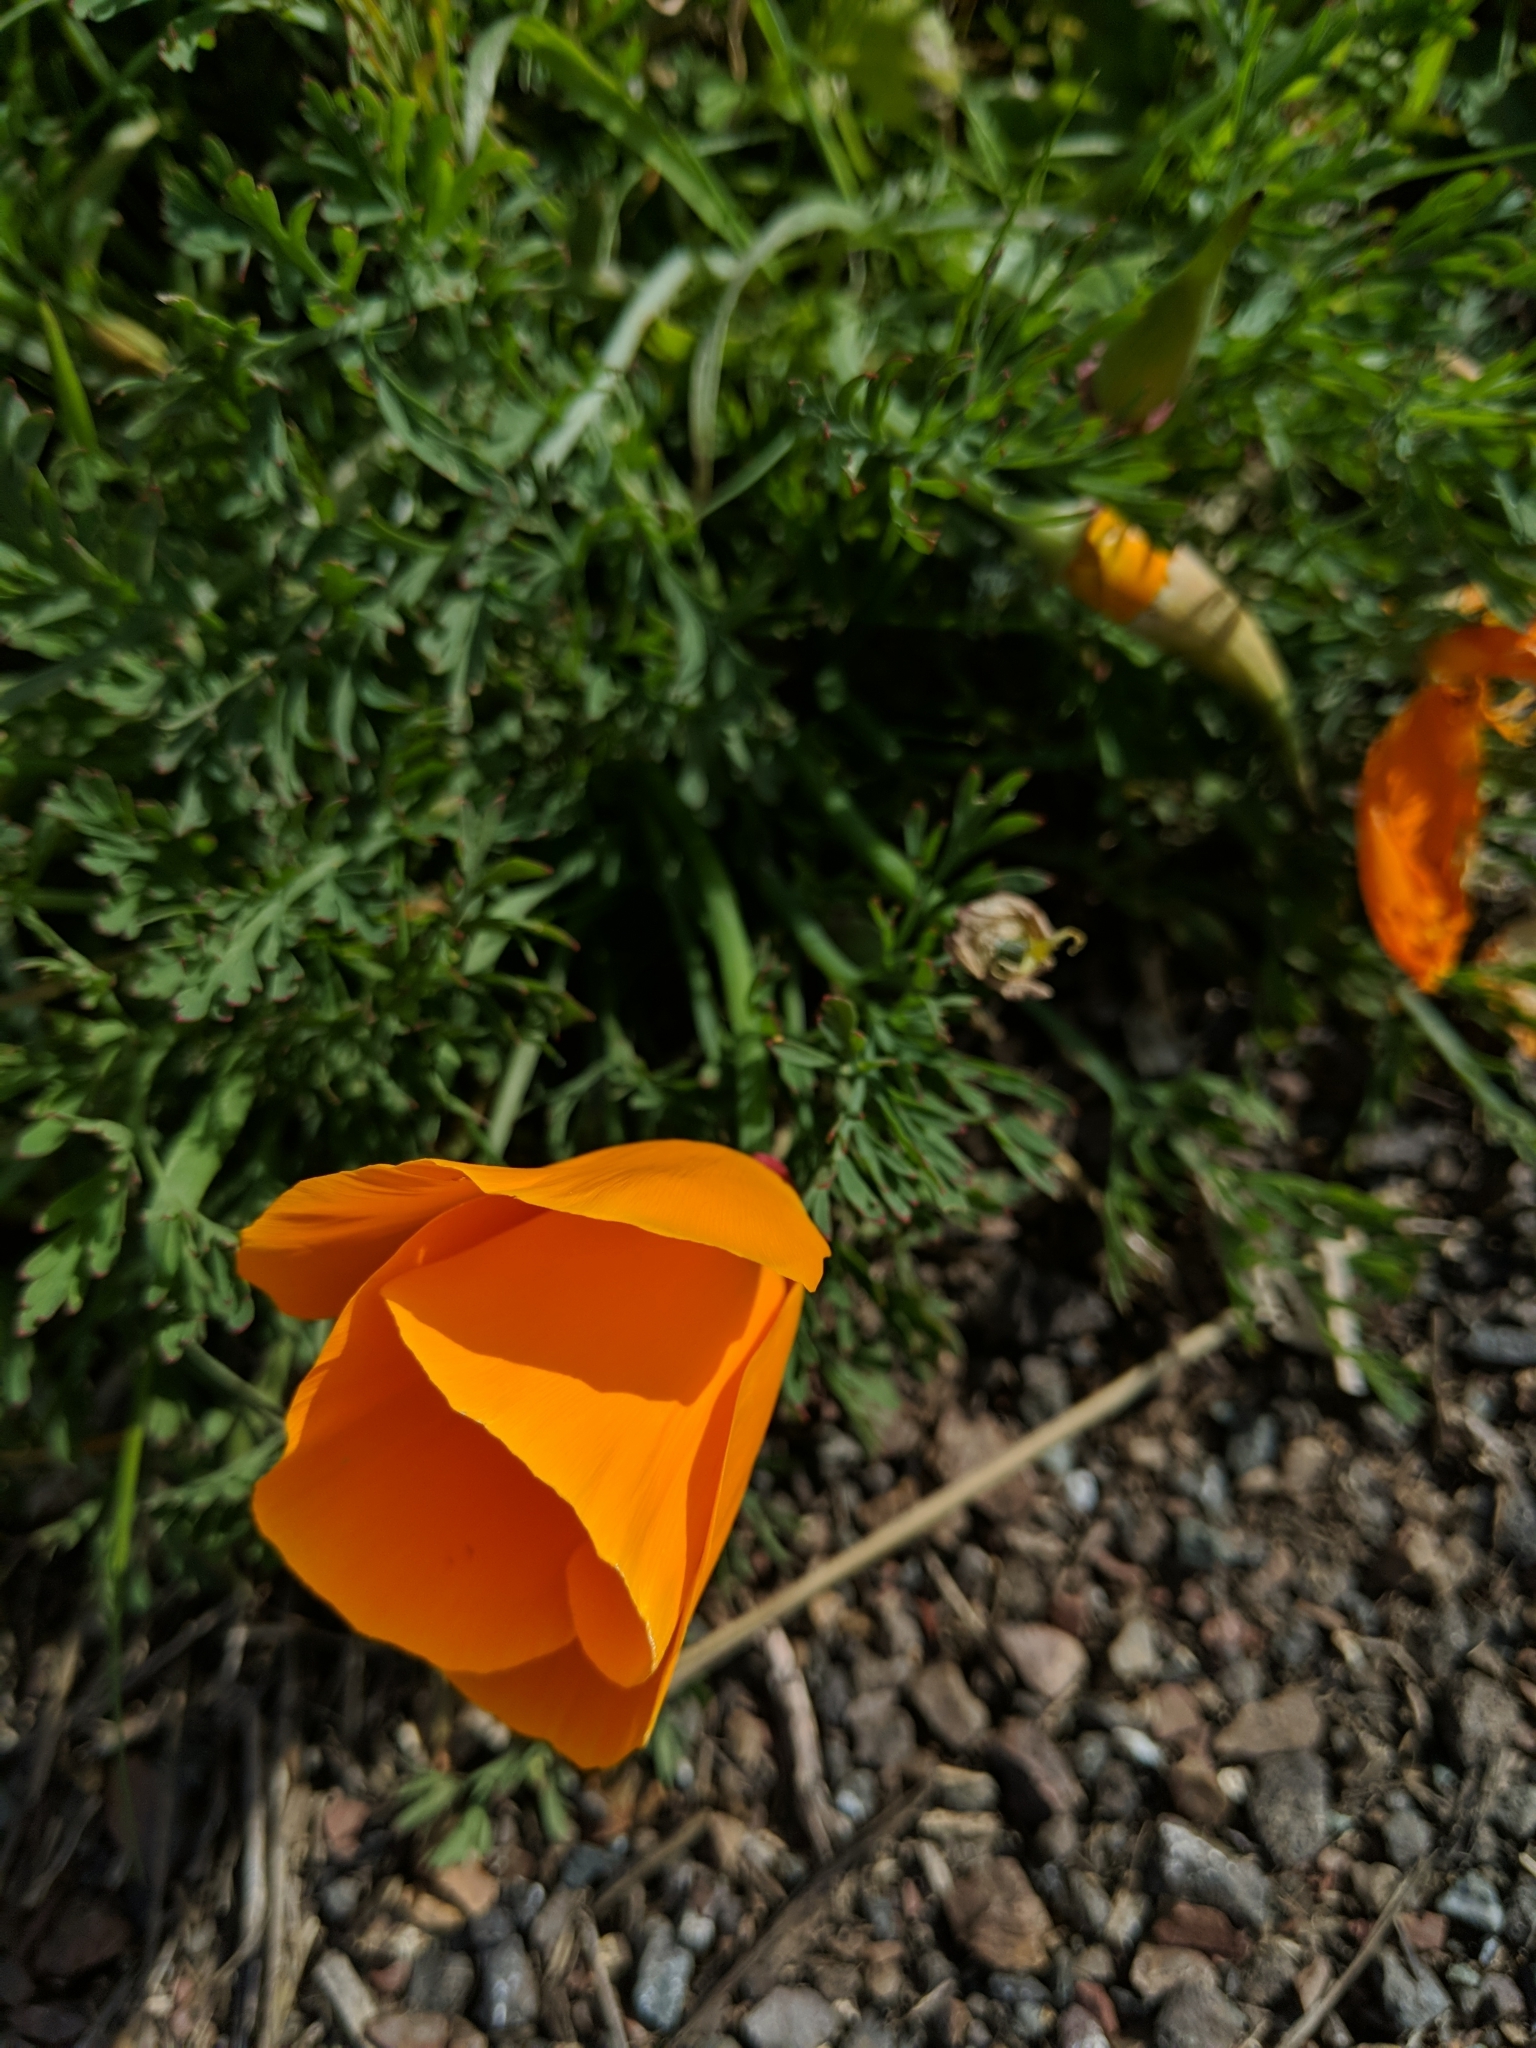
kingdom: Plantae
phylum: Tracheophyta
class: Magnoliopsida
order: Ranunculales
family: Papaveraceae
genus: Eschscholzia
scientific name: Eschscholzia californica
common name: California poppy
